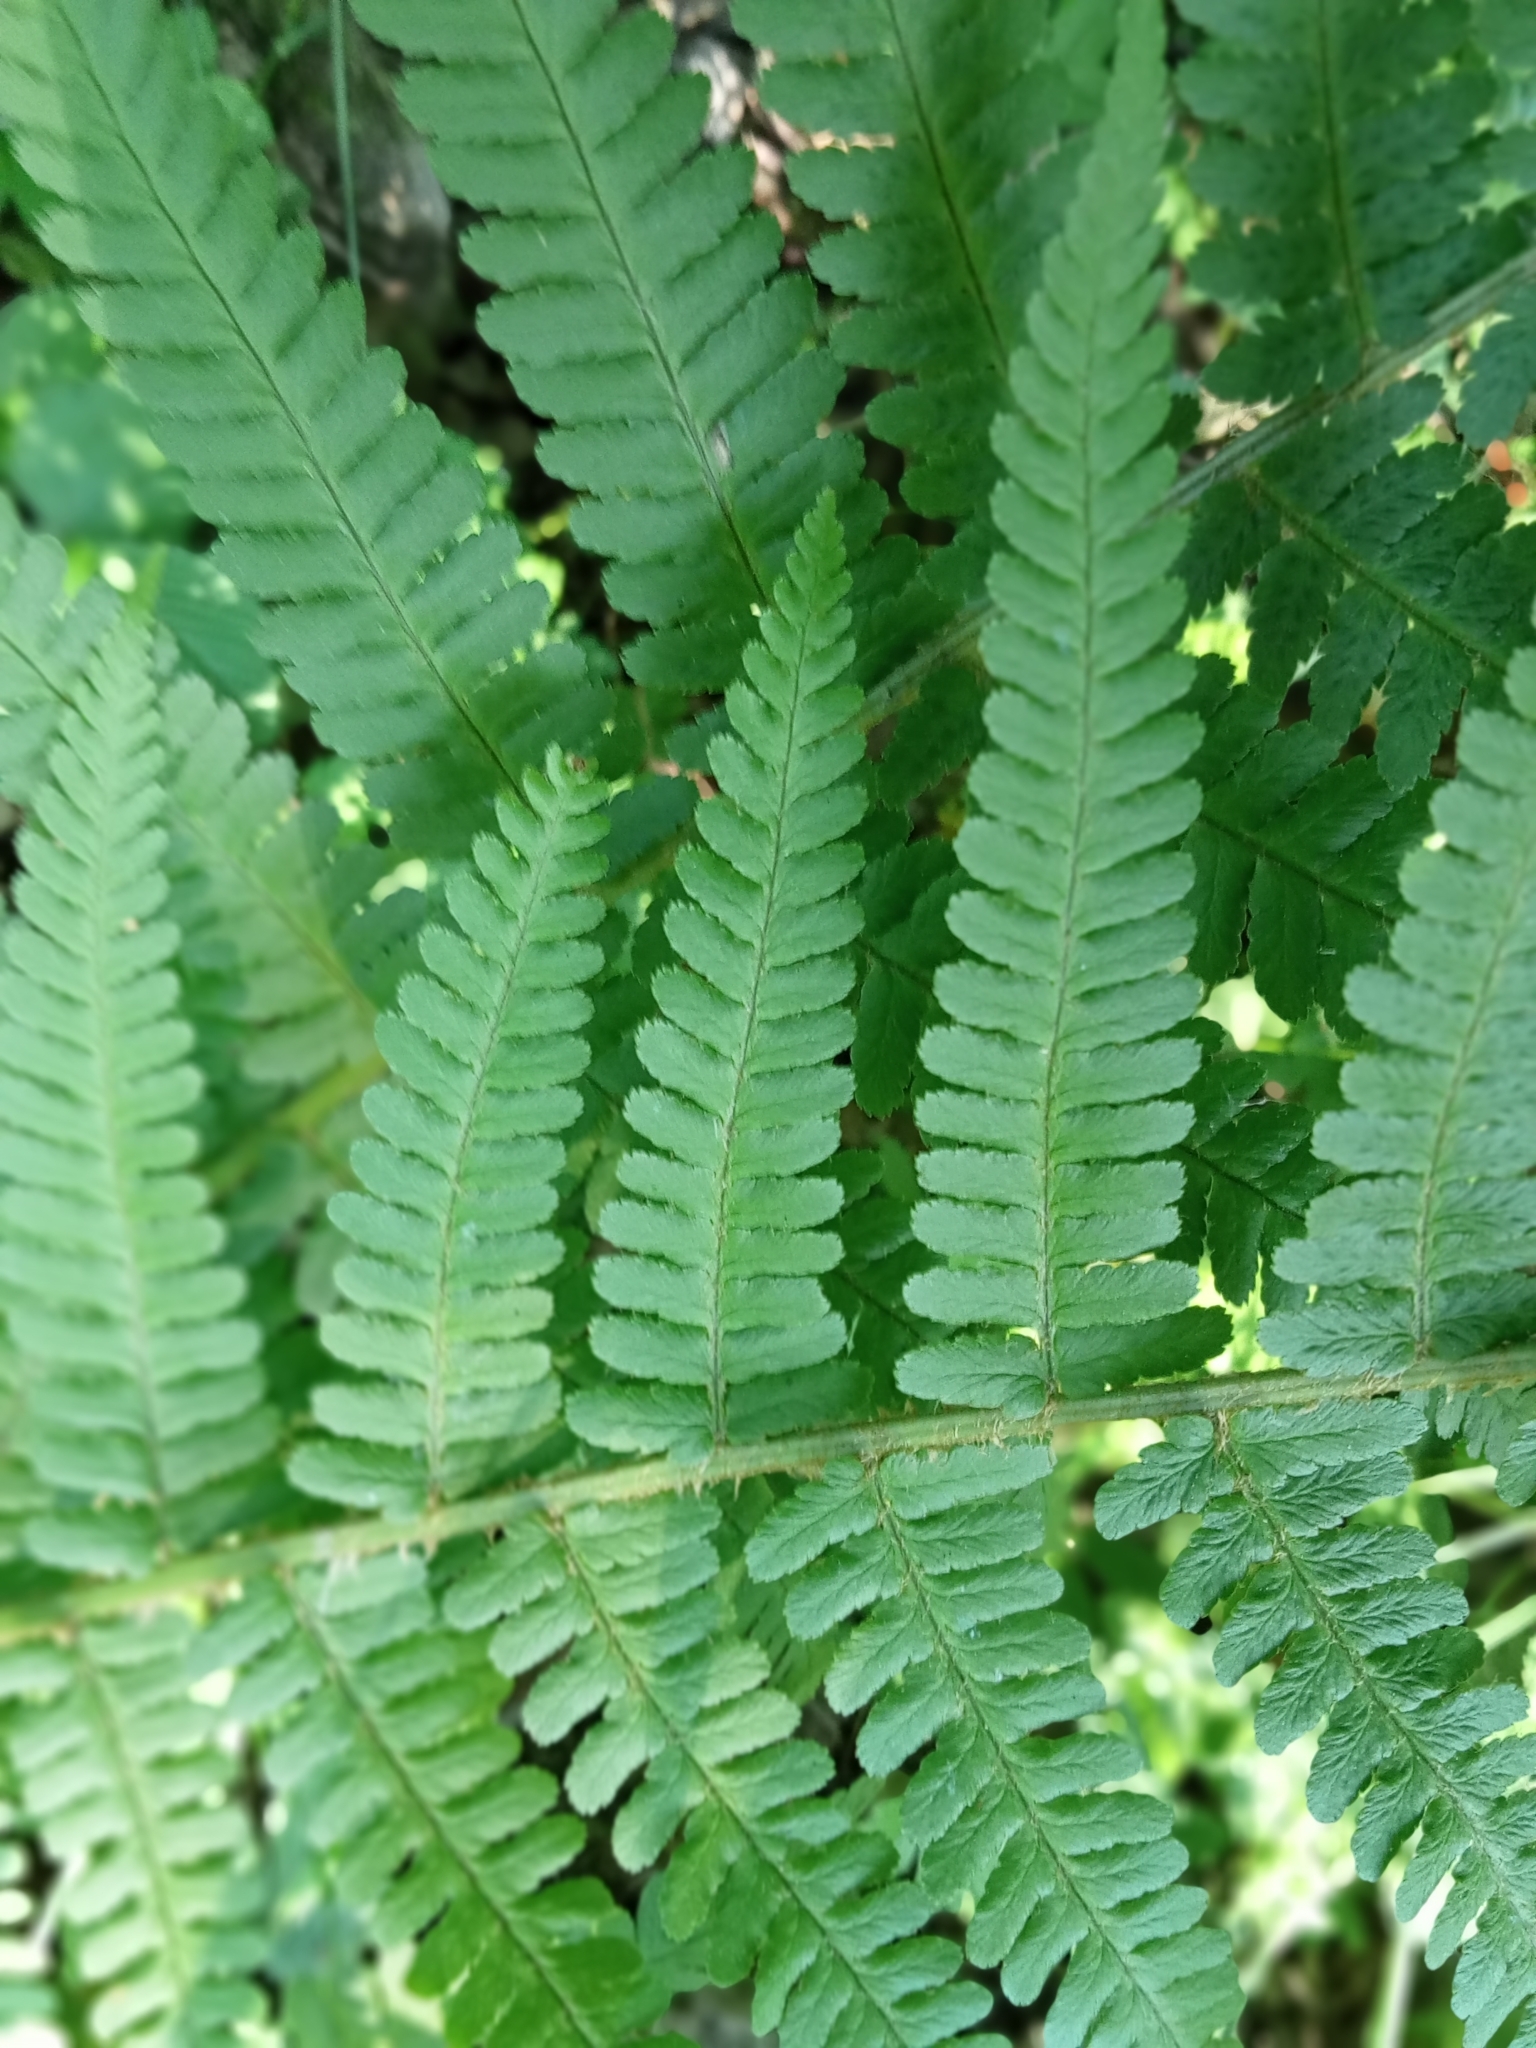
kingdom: Plantae
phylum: Tracheophyta
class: Polypodiopsida
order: Polypodiales
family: Dryopteridaceae
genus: Dryopteris
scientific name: Dryopteris filix-mas
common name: Male fern
